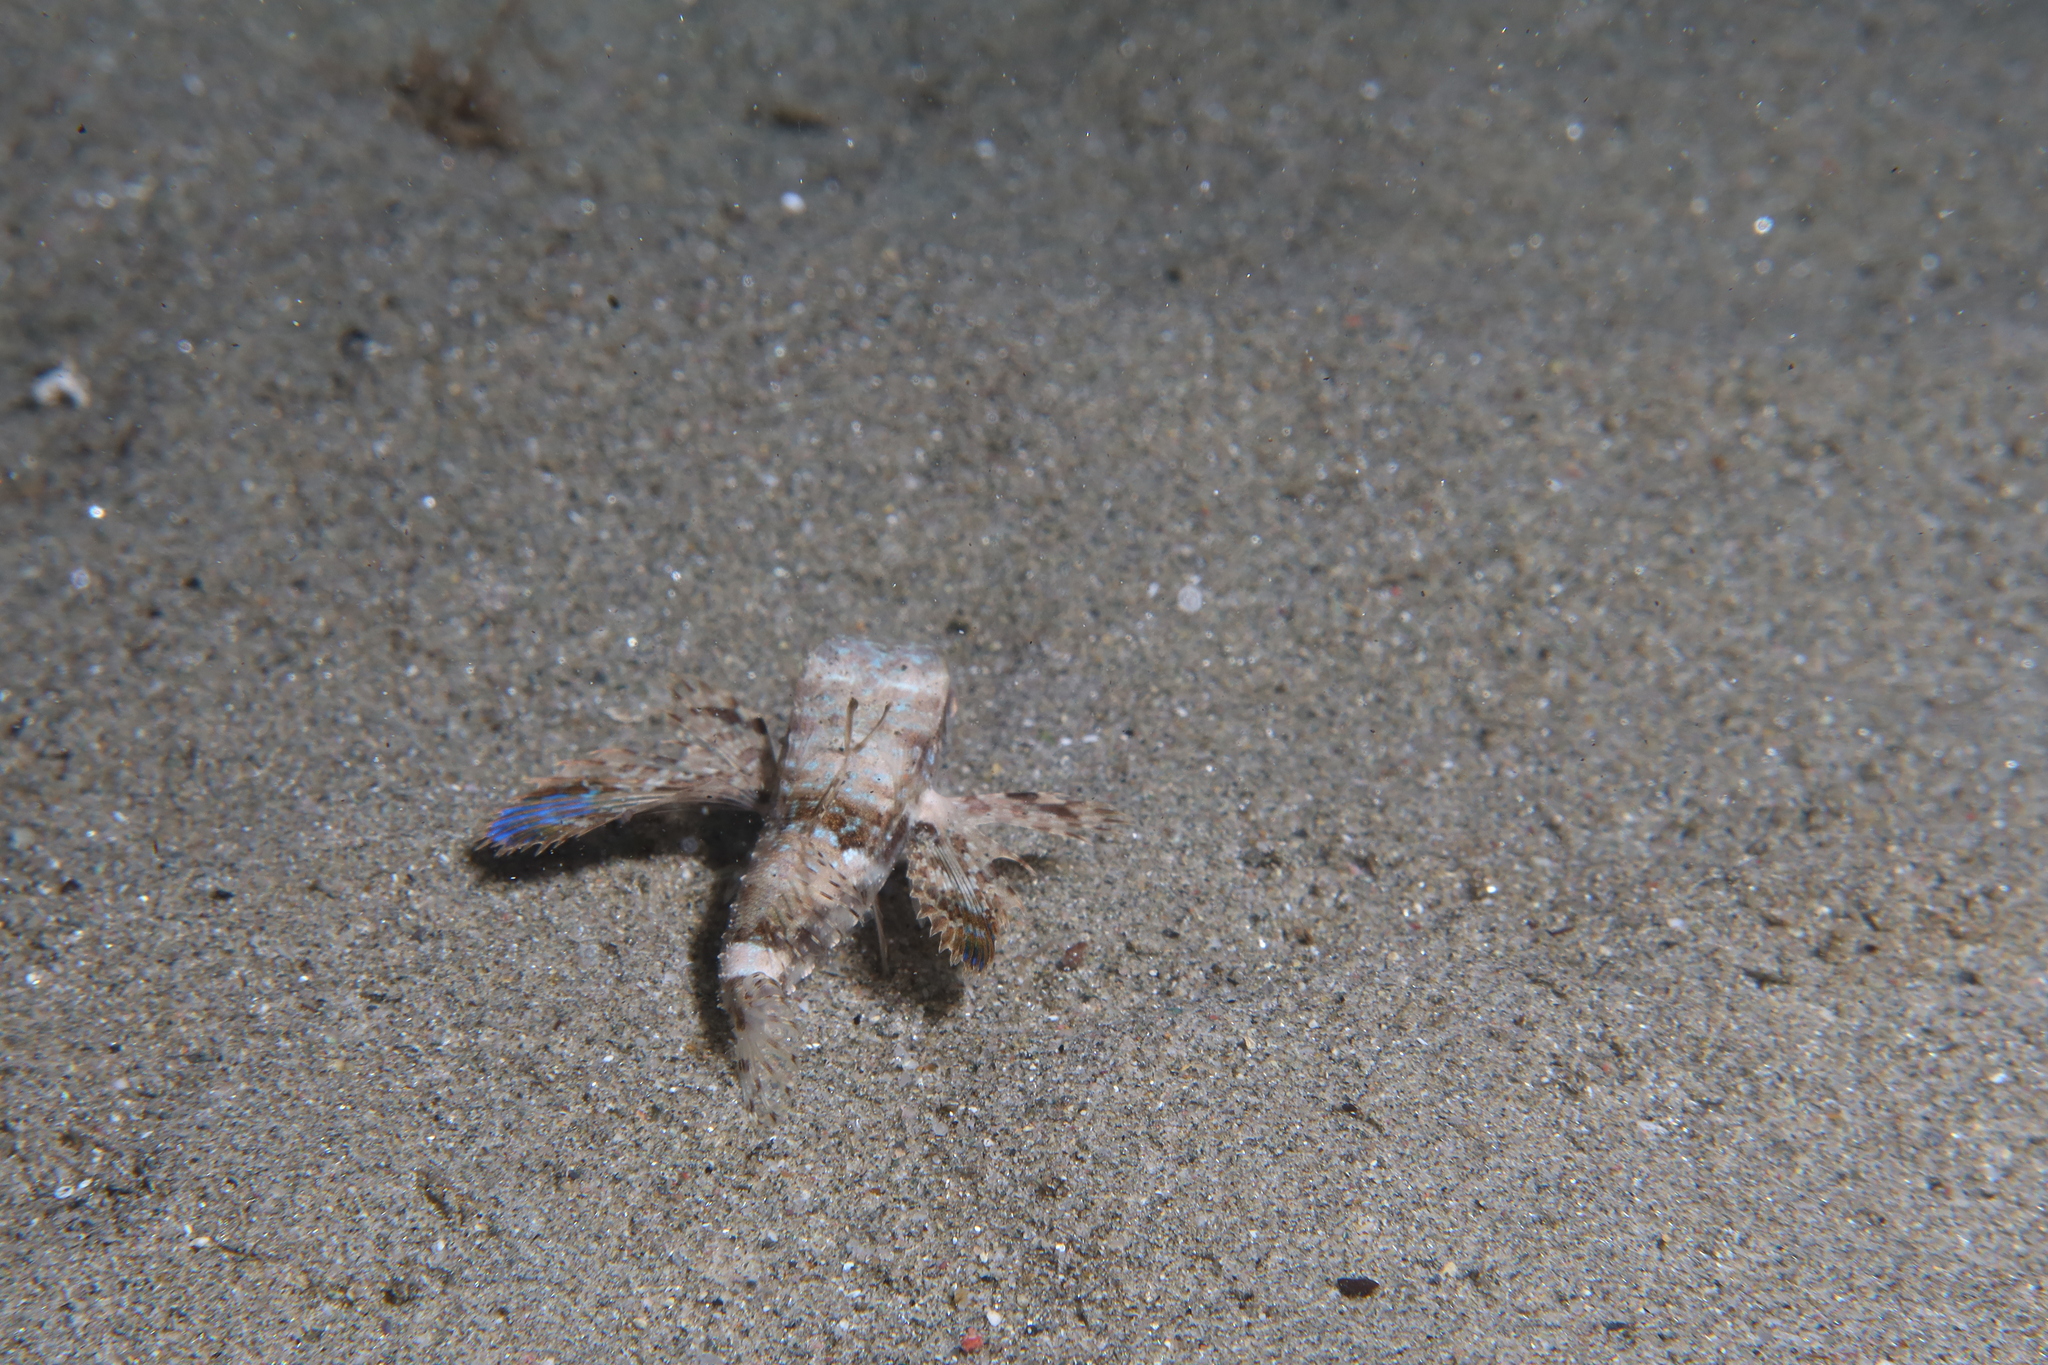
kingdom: Animalia
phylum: Chordata
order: Scorpaeniformes
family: Dactylopteridae
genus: Dactylopterus
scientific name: Dactylopterus volitans
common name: Flying gurnard
